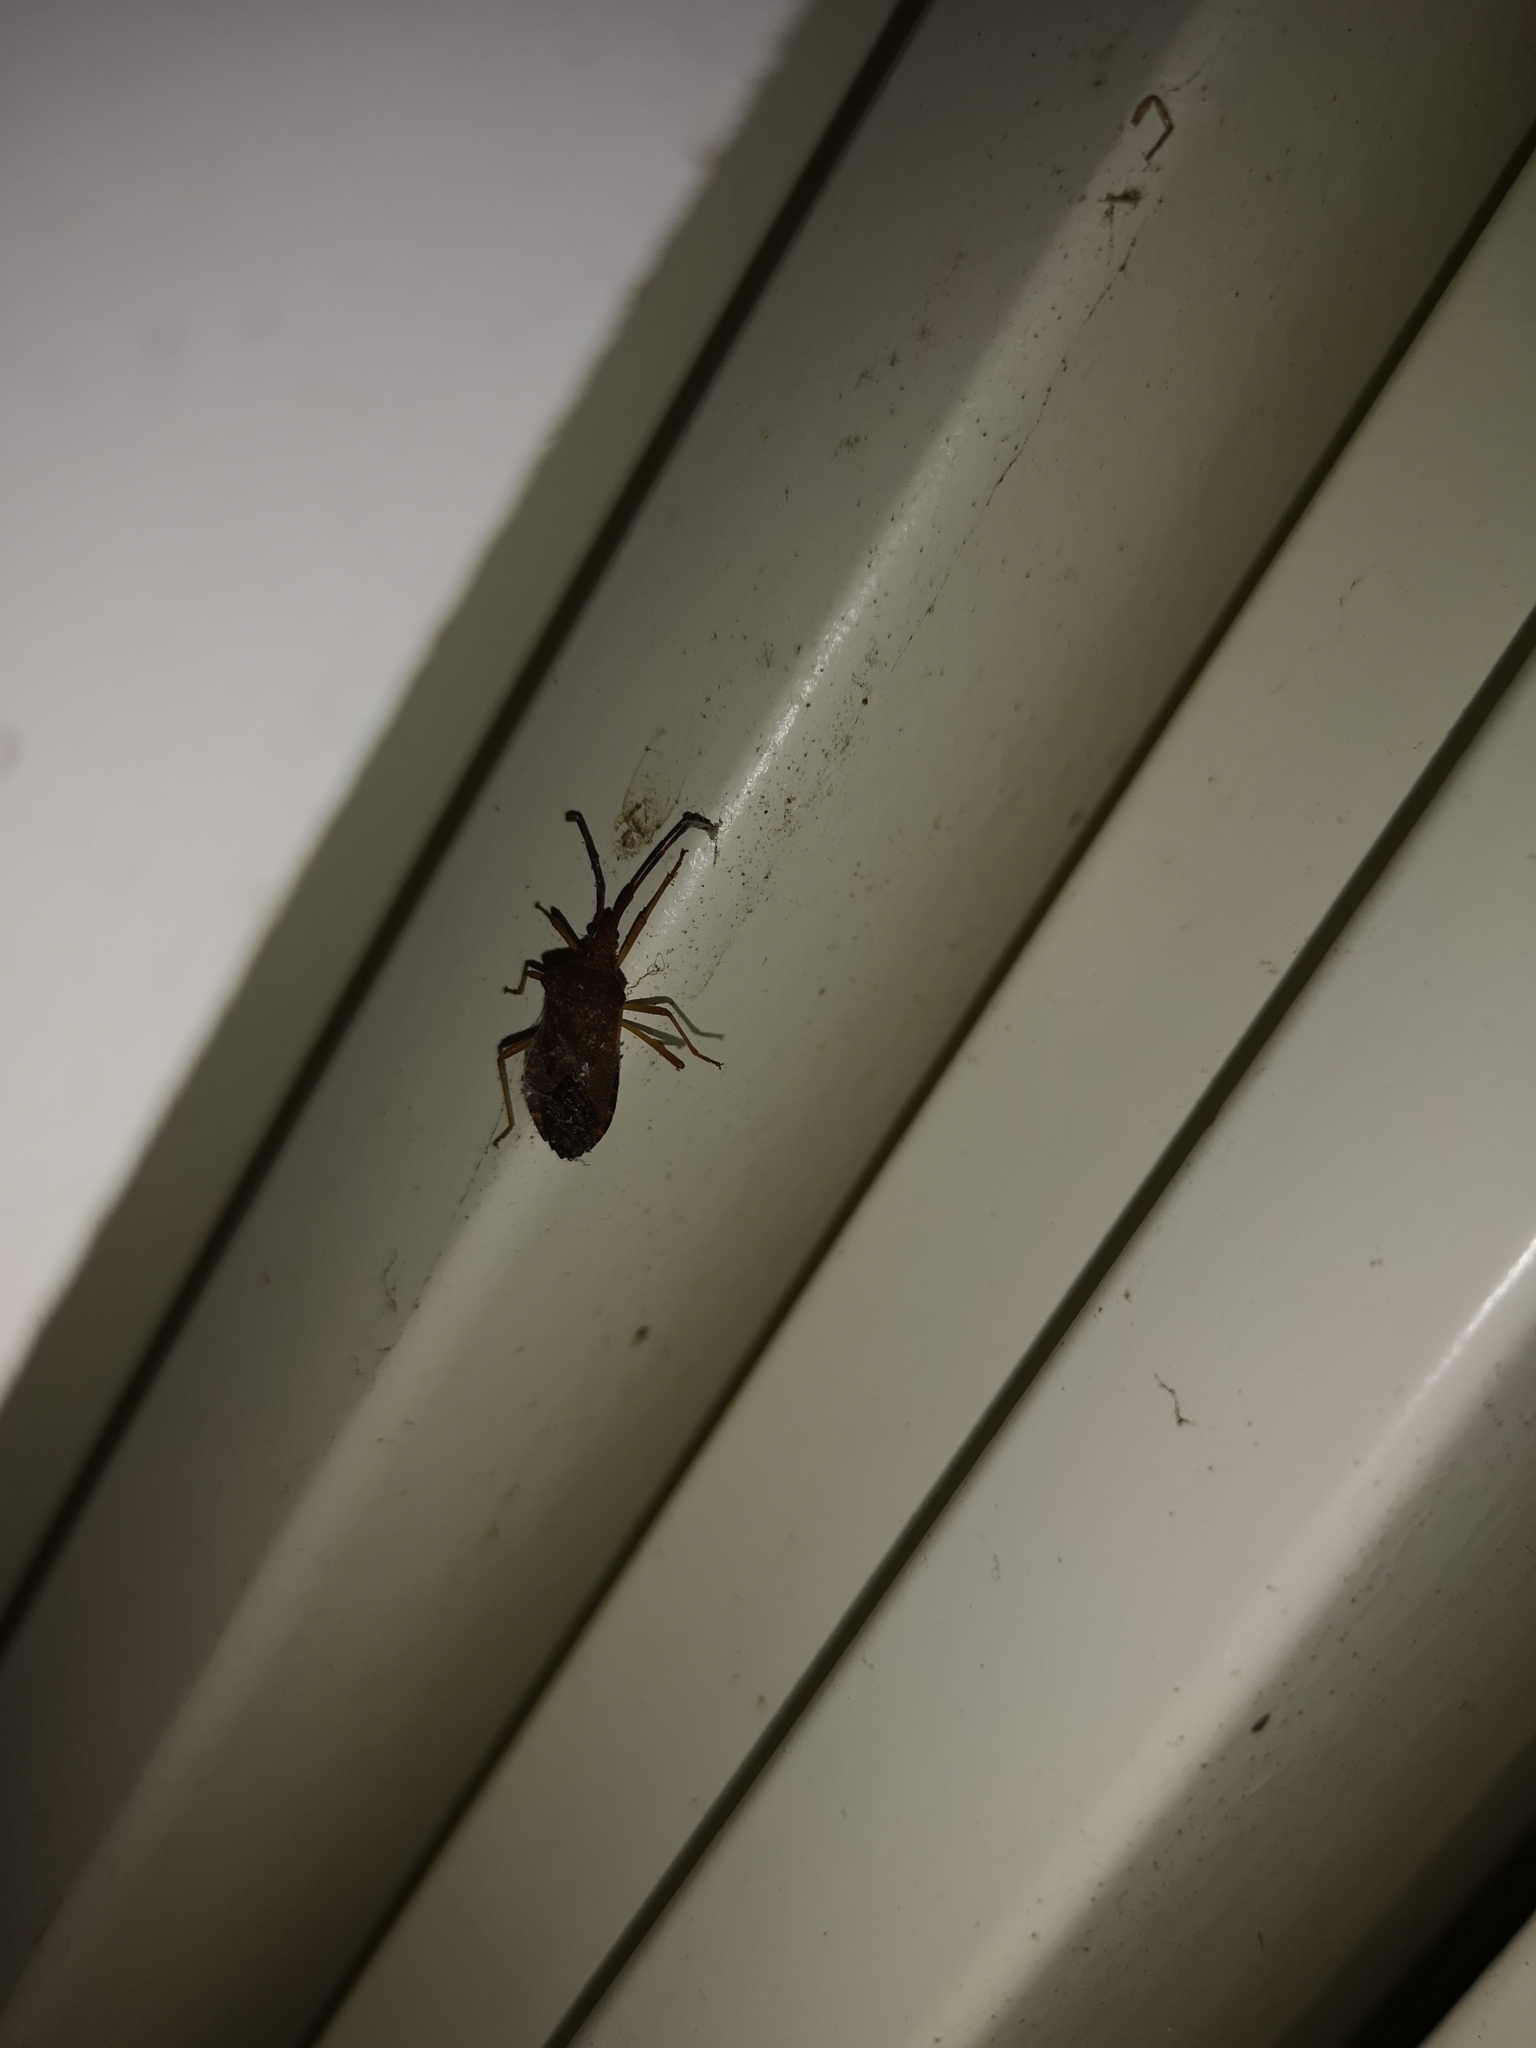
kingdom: Animalia
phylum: Arthropoda
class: Insecta
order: Hemiptera
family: Coreidae
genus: Gonocerus
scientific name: Gonocerus acuteangulatus
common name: Box bug
